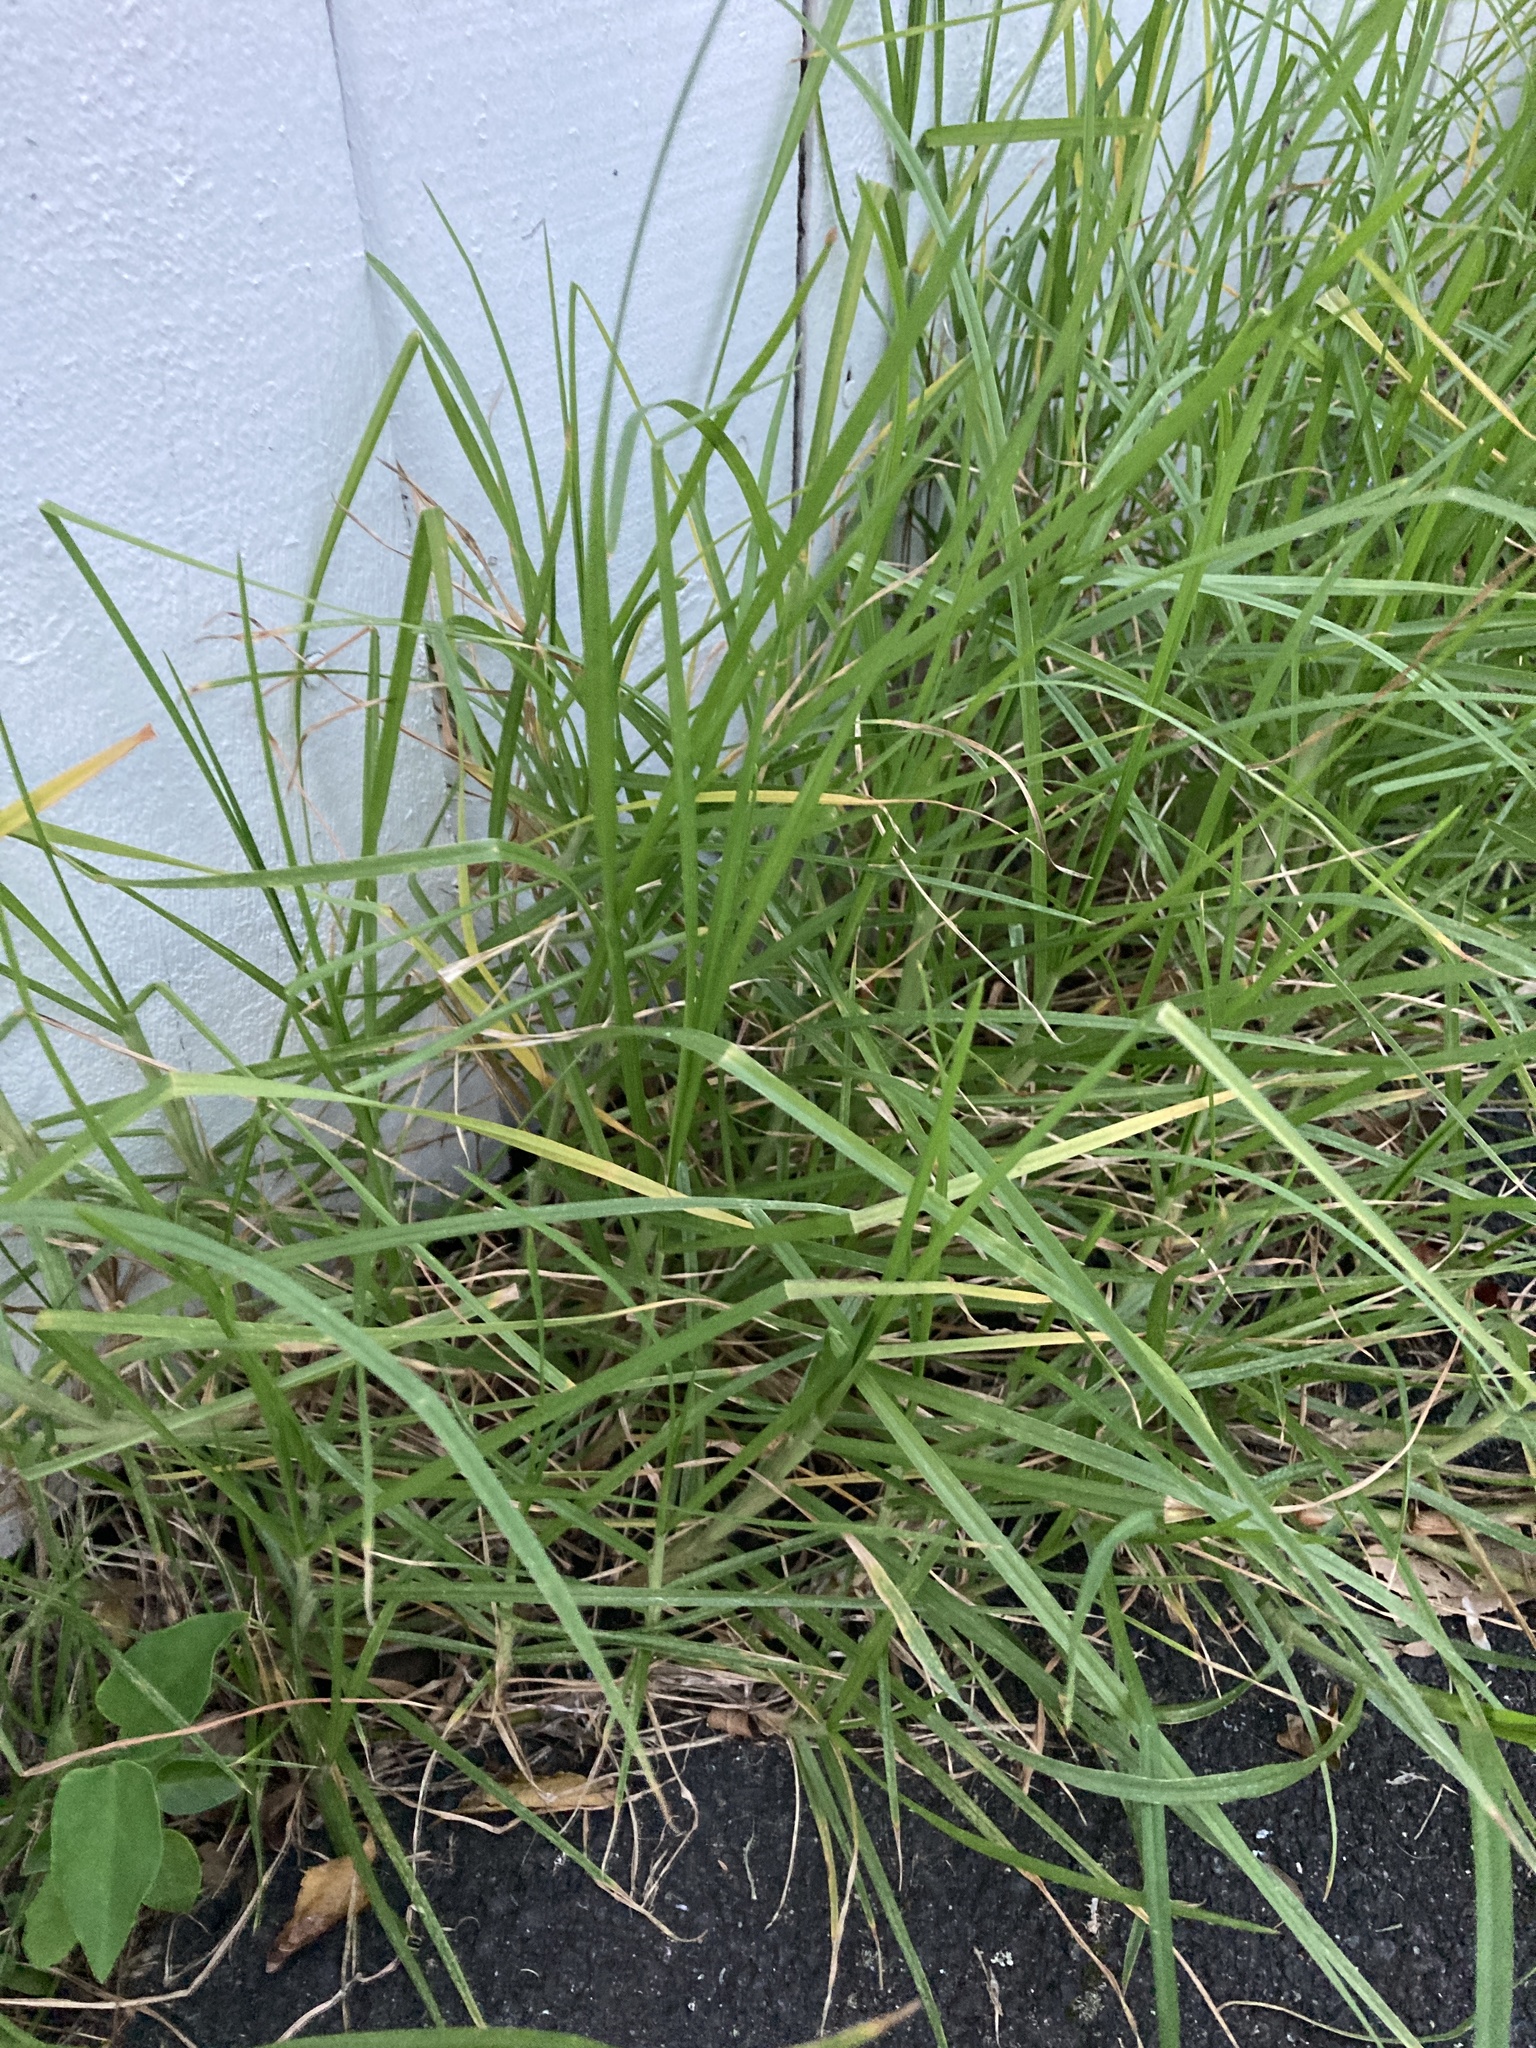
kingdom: Plantae
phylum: Tracheophyta
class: Liliopsida
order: Poales
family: Poaceae
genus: Cenchrus
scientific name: Cenchrus clandestinus
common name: Kikuyugrass
